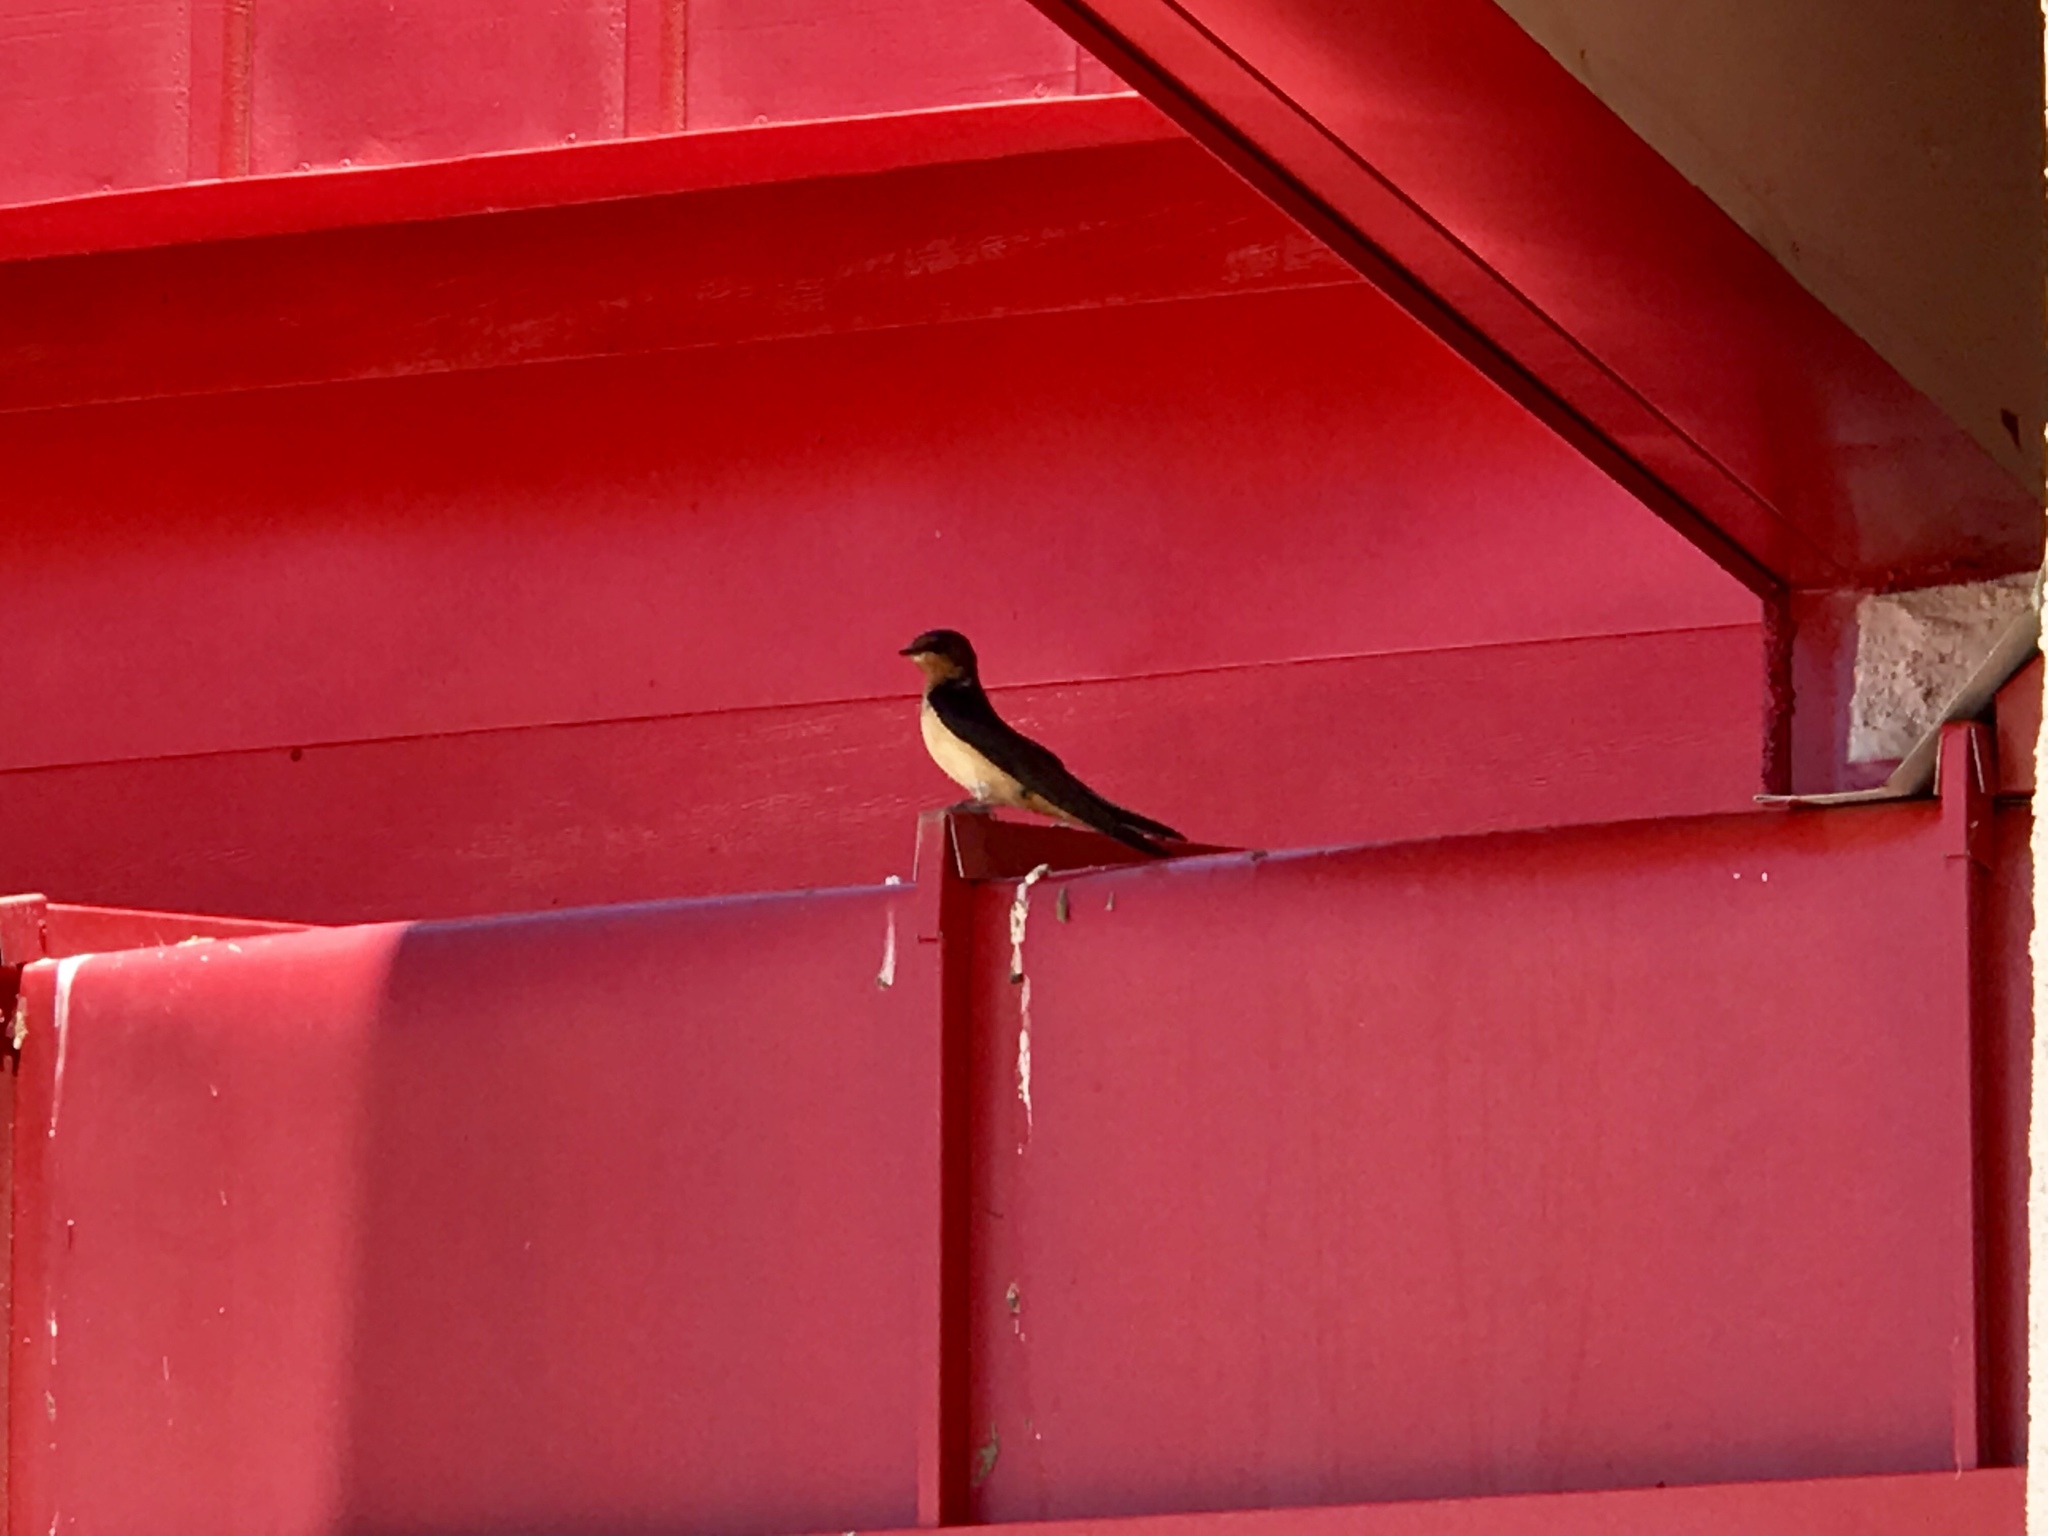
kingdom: Animalia
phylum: Chordata
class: Aves
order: Passeriformes
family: Hirundinidae
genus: Hirundo
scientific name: Hirundo rustica
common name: Barn swallow
